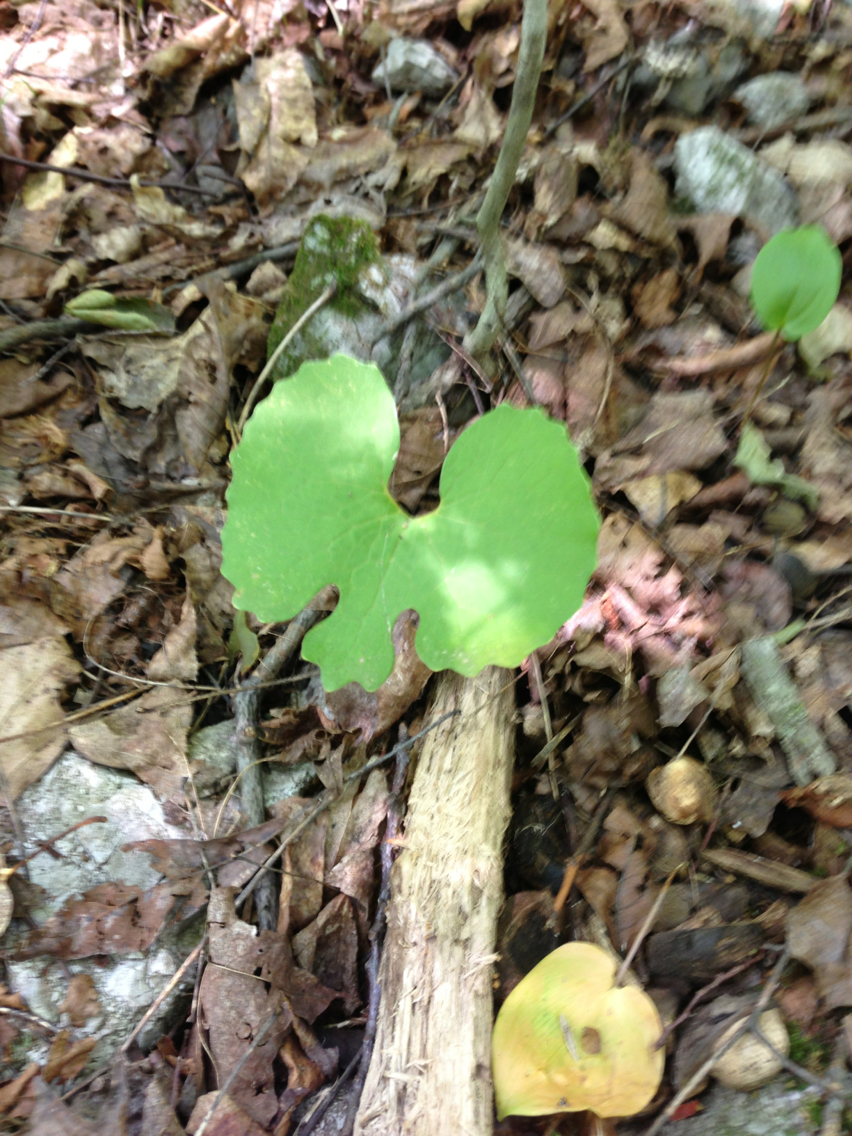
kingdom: Plantae
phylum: Tracheophyta
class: Magnoliopsida
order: Ranunculales
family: Papaveraceae
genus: Sanguinaria
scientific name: Sanguinaria canadensis
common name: Bloodroot
